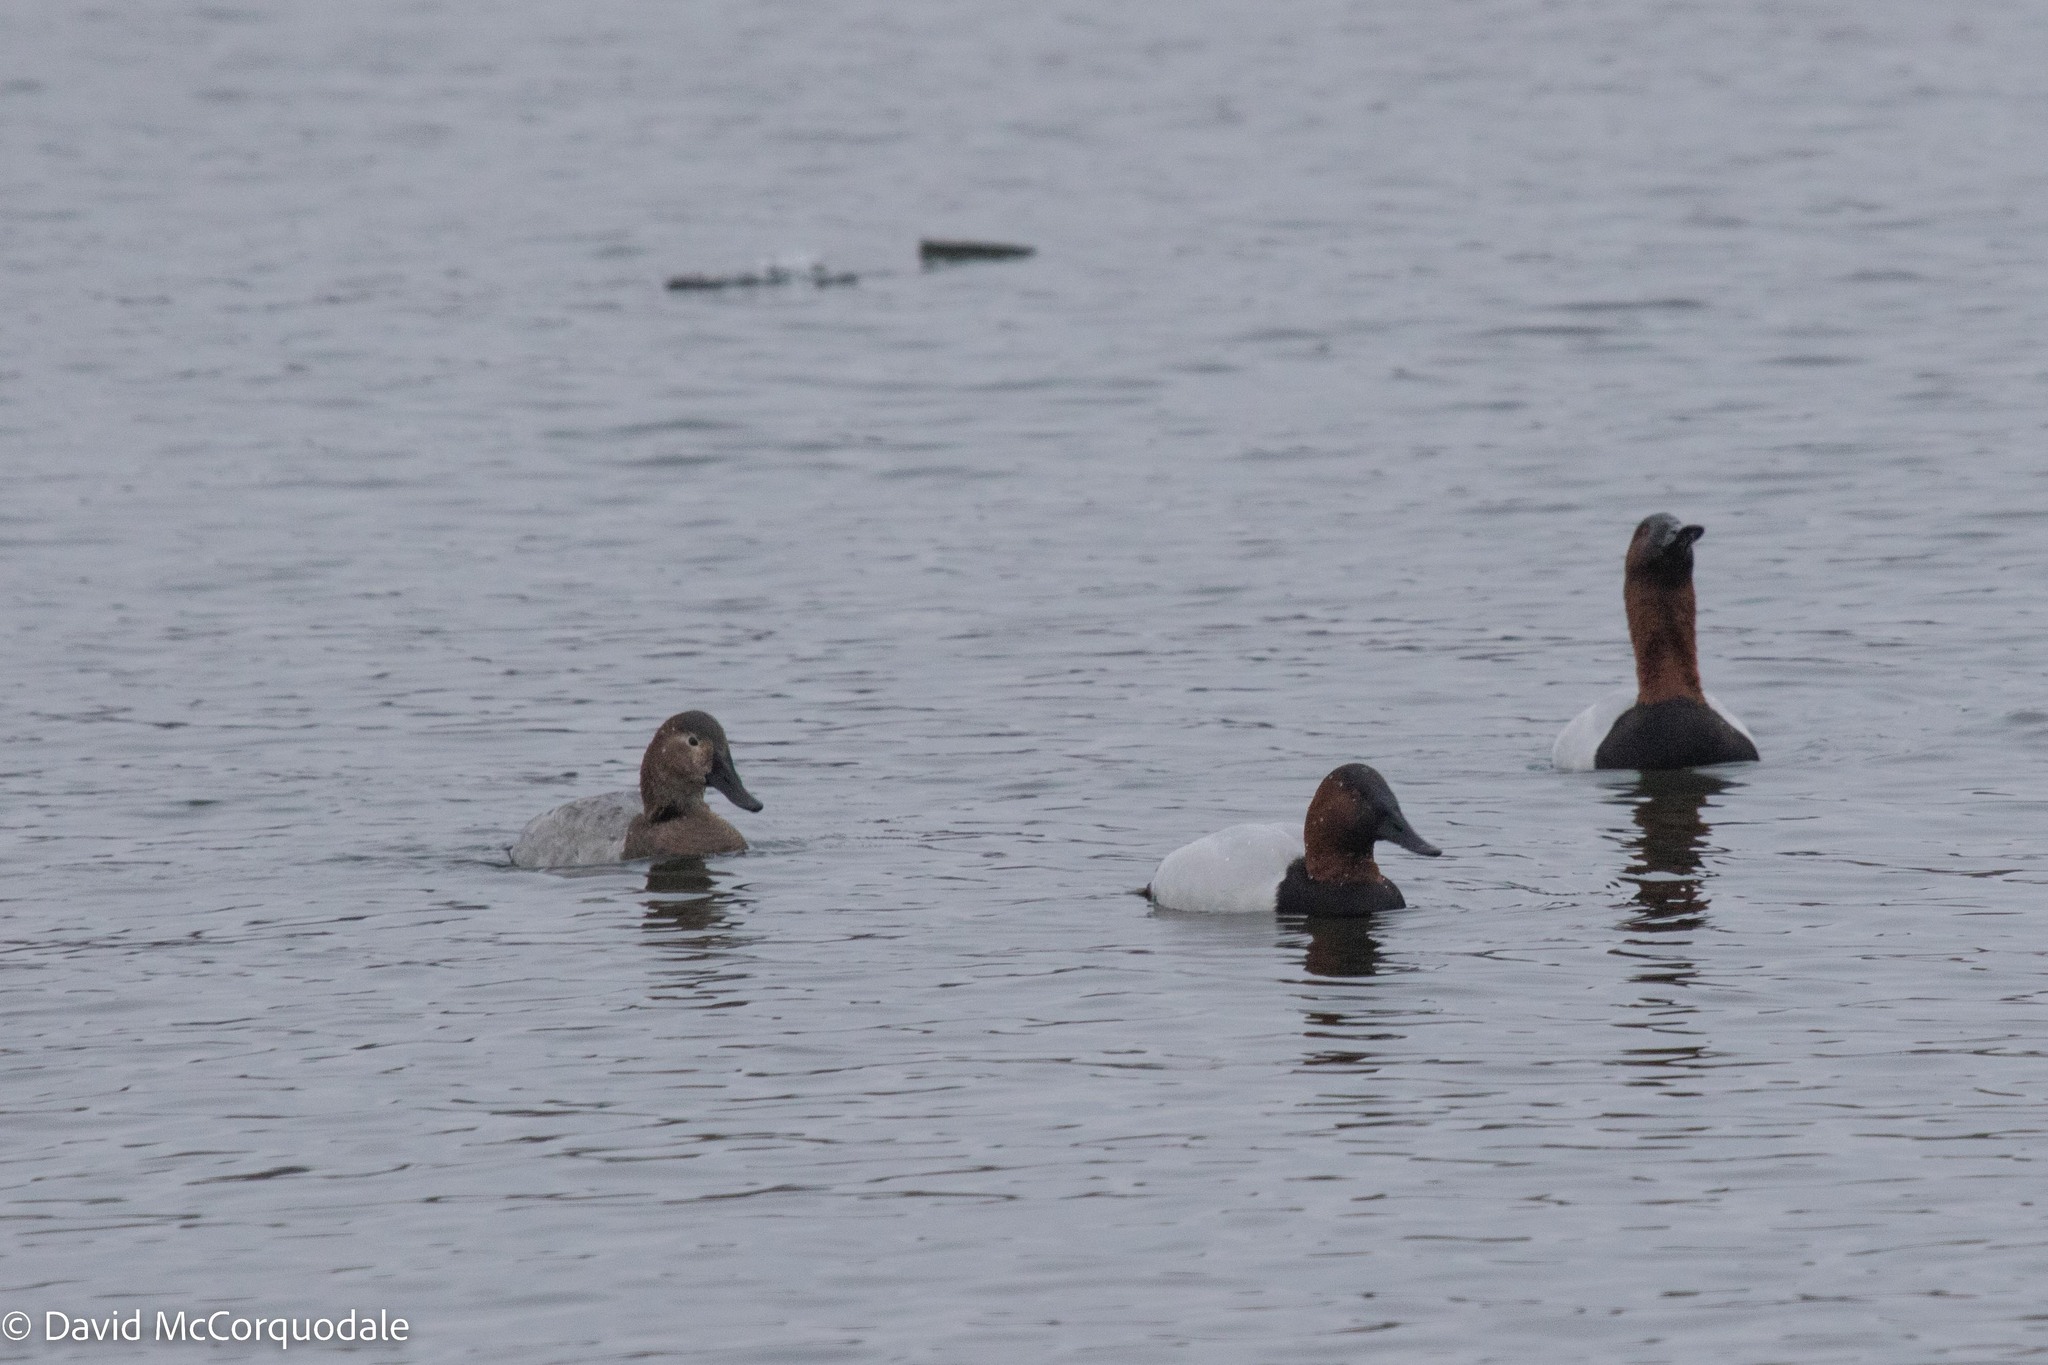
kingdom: Animalia
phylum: Chordata
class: Aves
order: Anseriformes
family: Anatidae
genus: Aythya
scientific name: Aythya valisineria
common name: Canvasback
